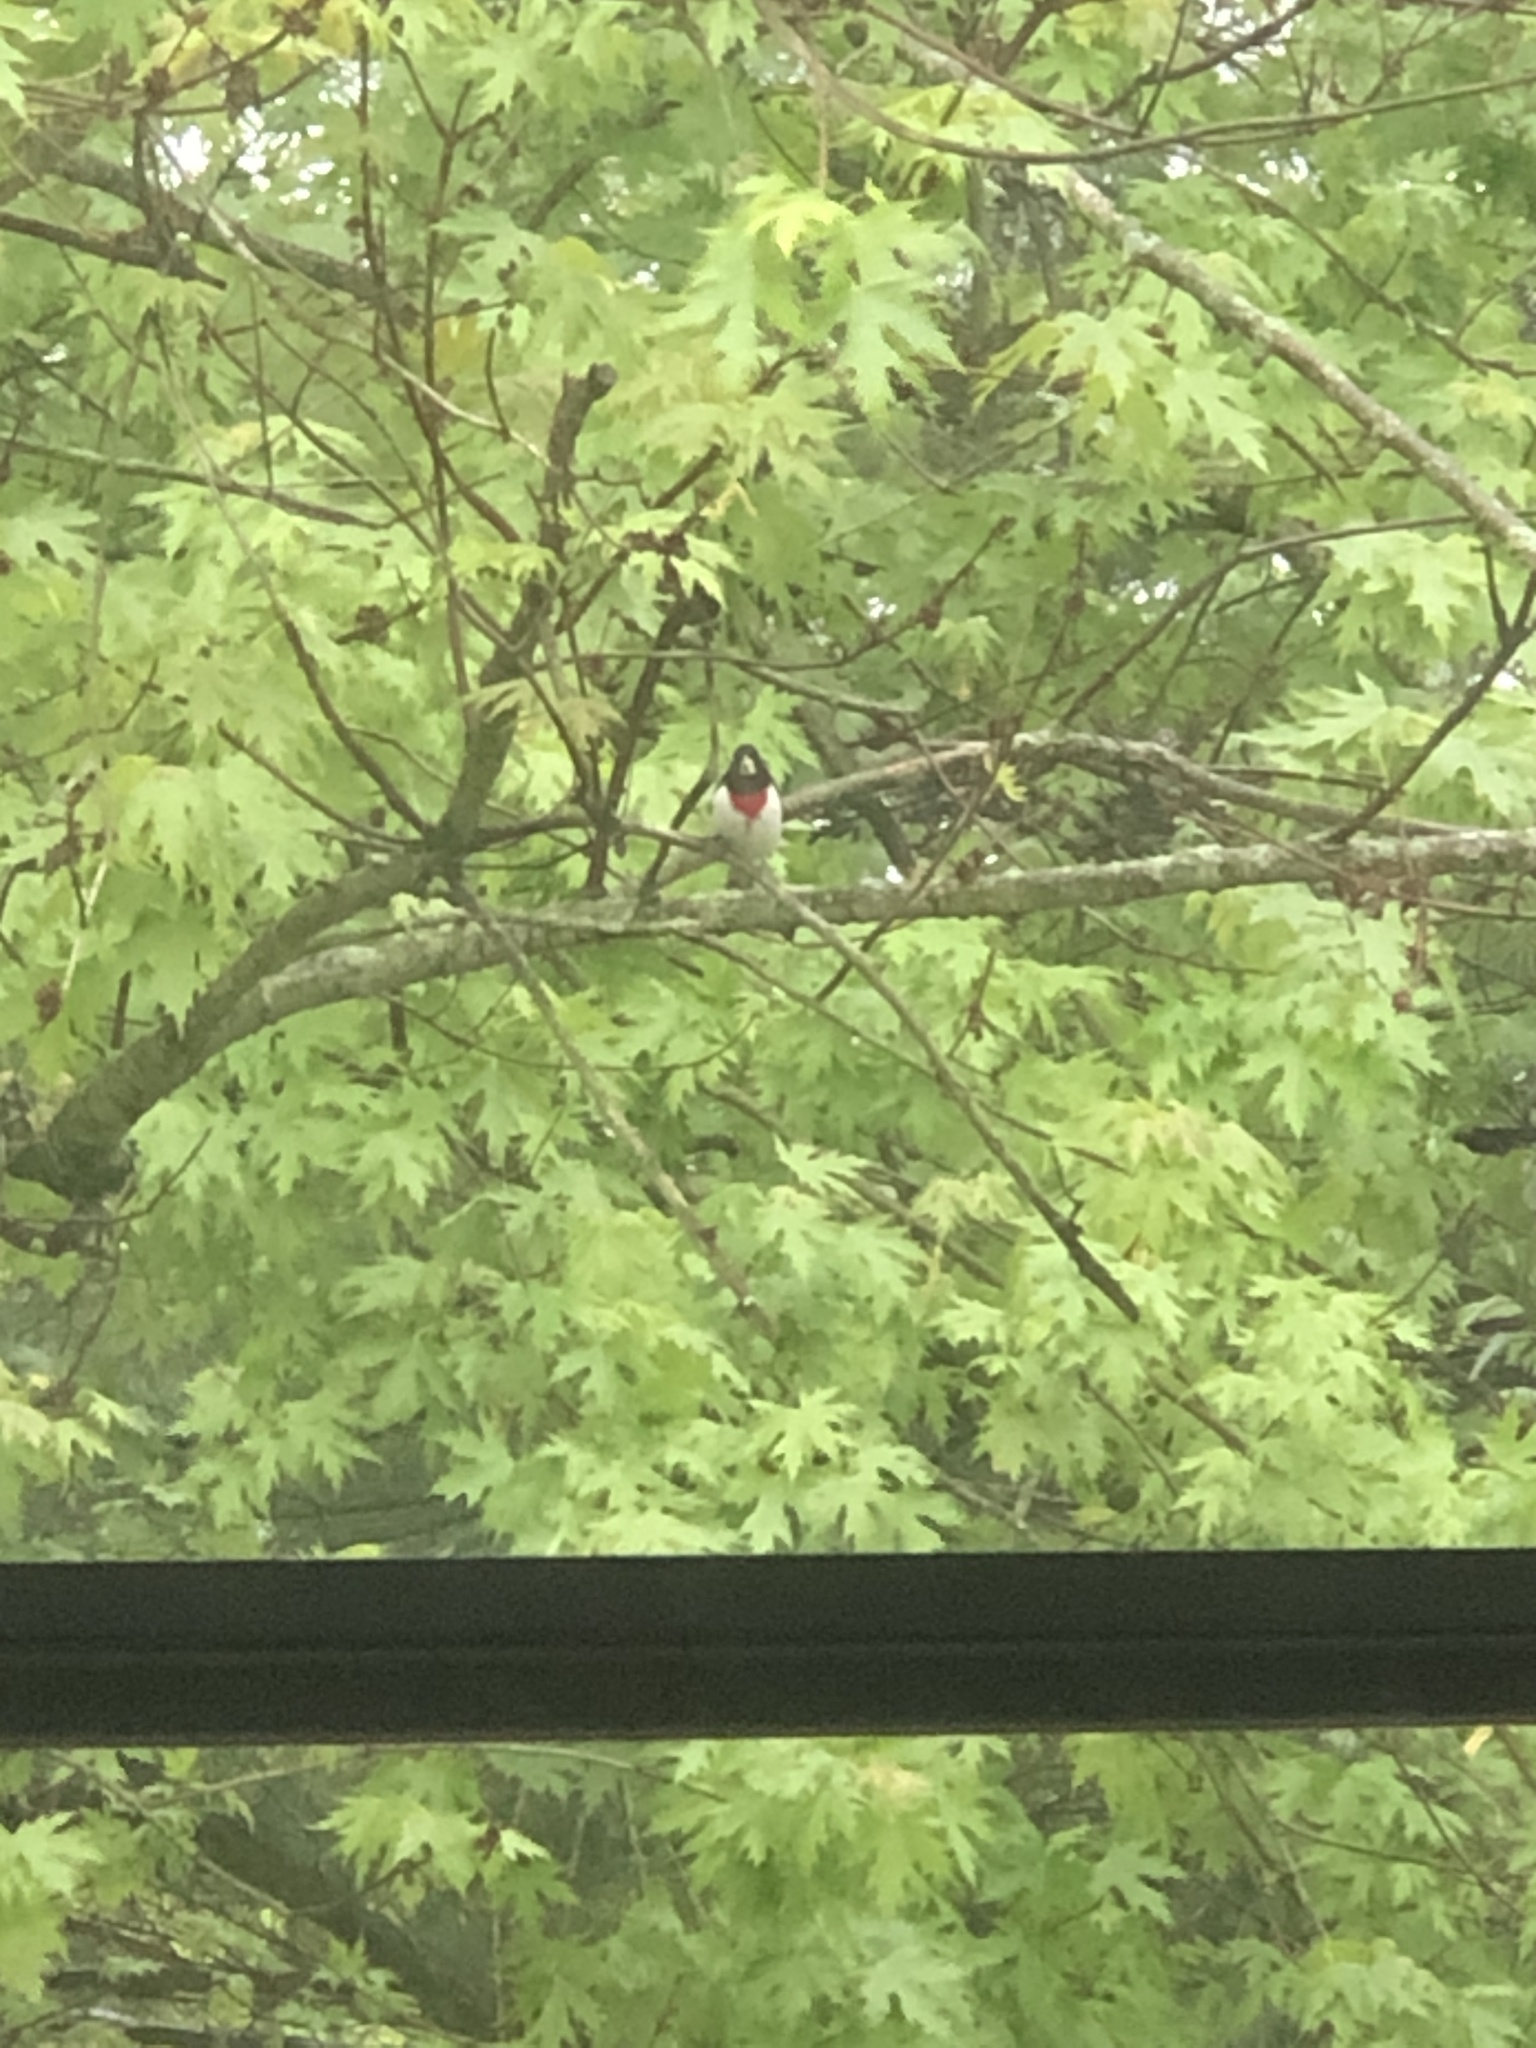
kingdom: Animalia
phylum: Chordata
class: Aves
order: Passeriformes
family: Cardinalidae
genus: Pheucticus
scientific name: Pheucticus ludovicianus
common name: Rose-breasted grosbeak
